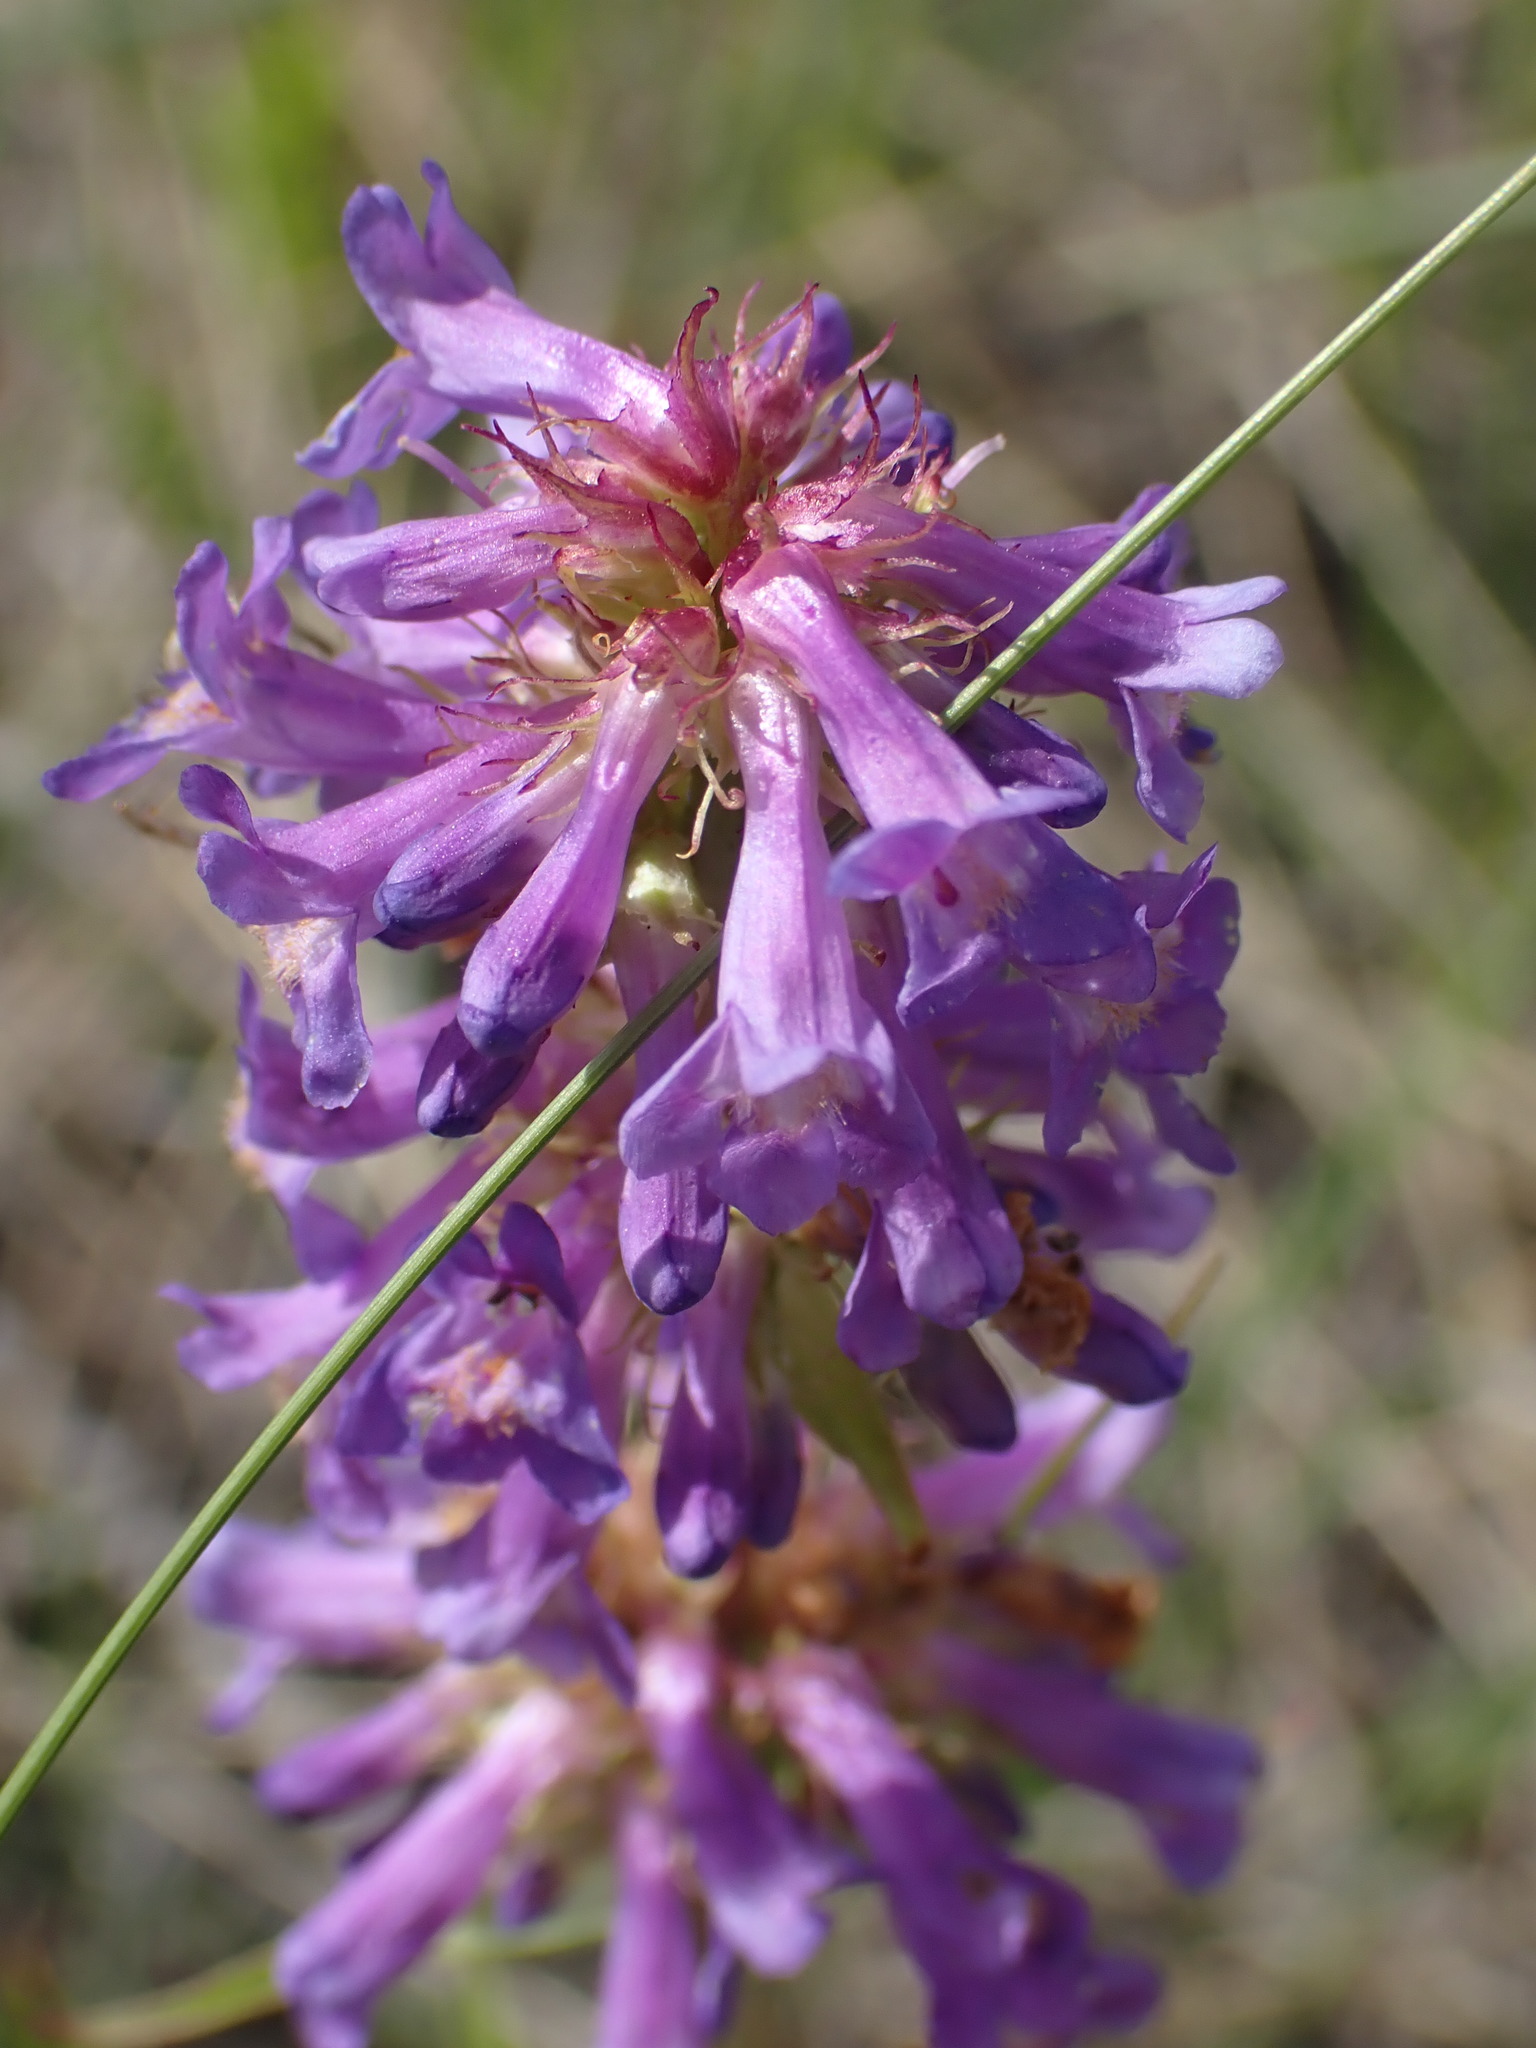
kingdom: Plantae
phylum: Tracheophyta
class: Magnoliopsida
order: Lamiales
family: Plantaginaceae
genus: Penstemon
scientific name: Penstemon procerus
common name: Small-flower penstemon
